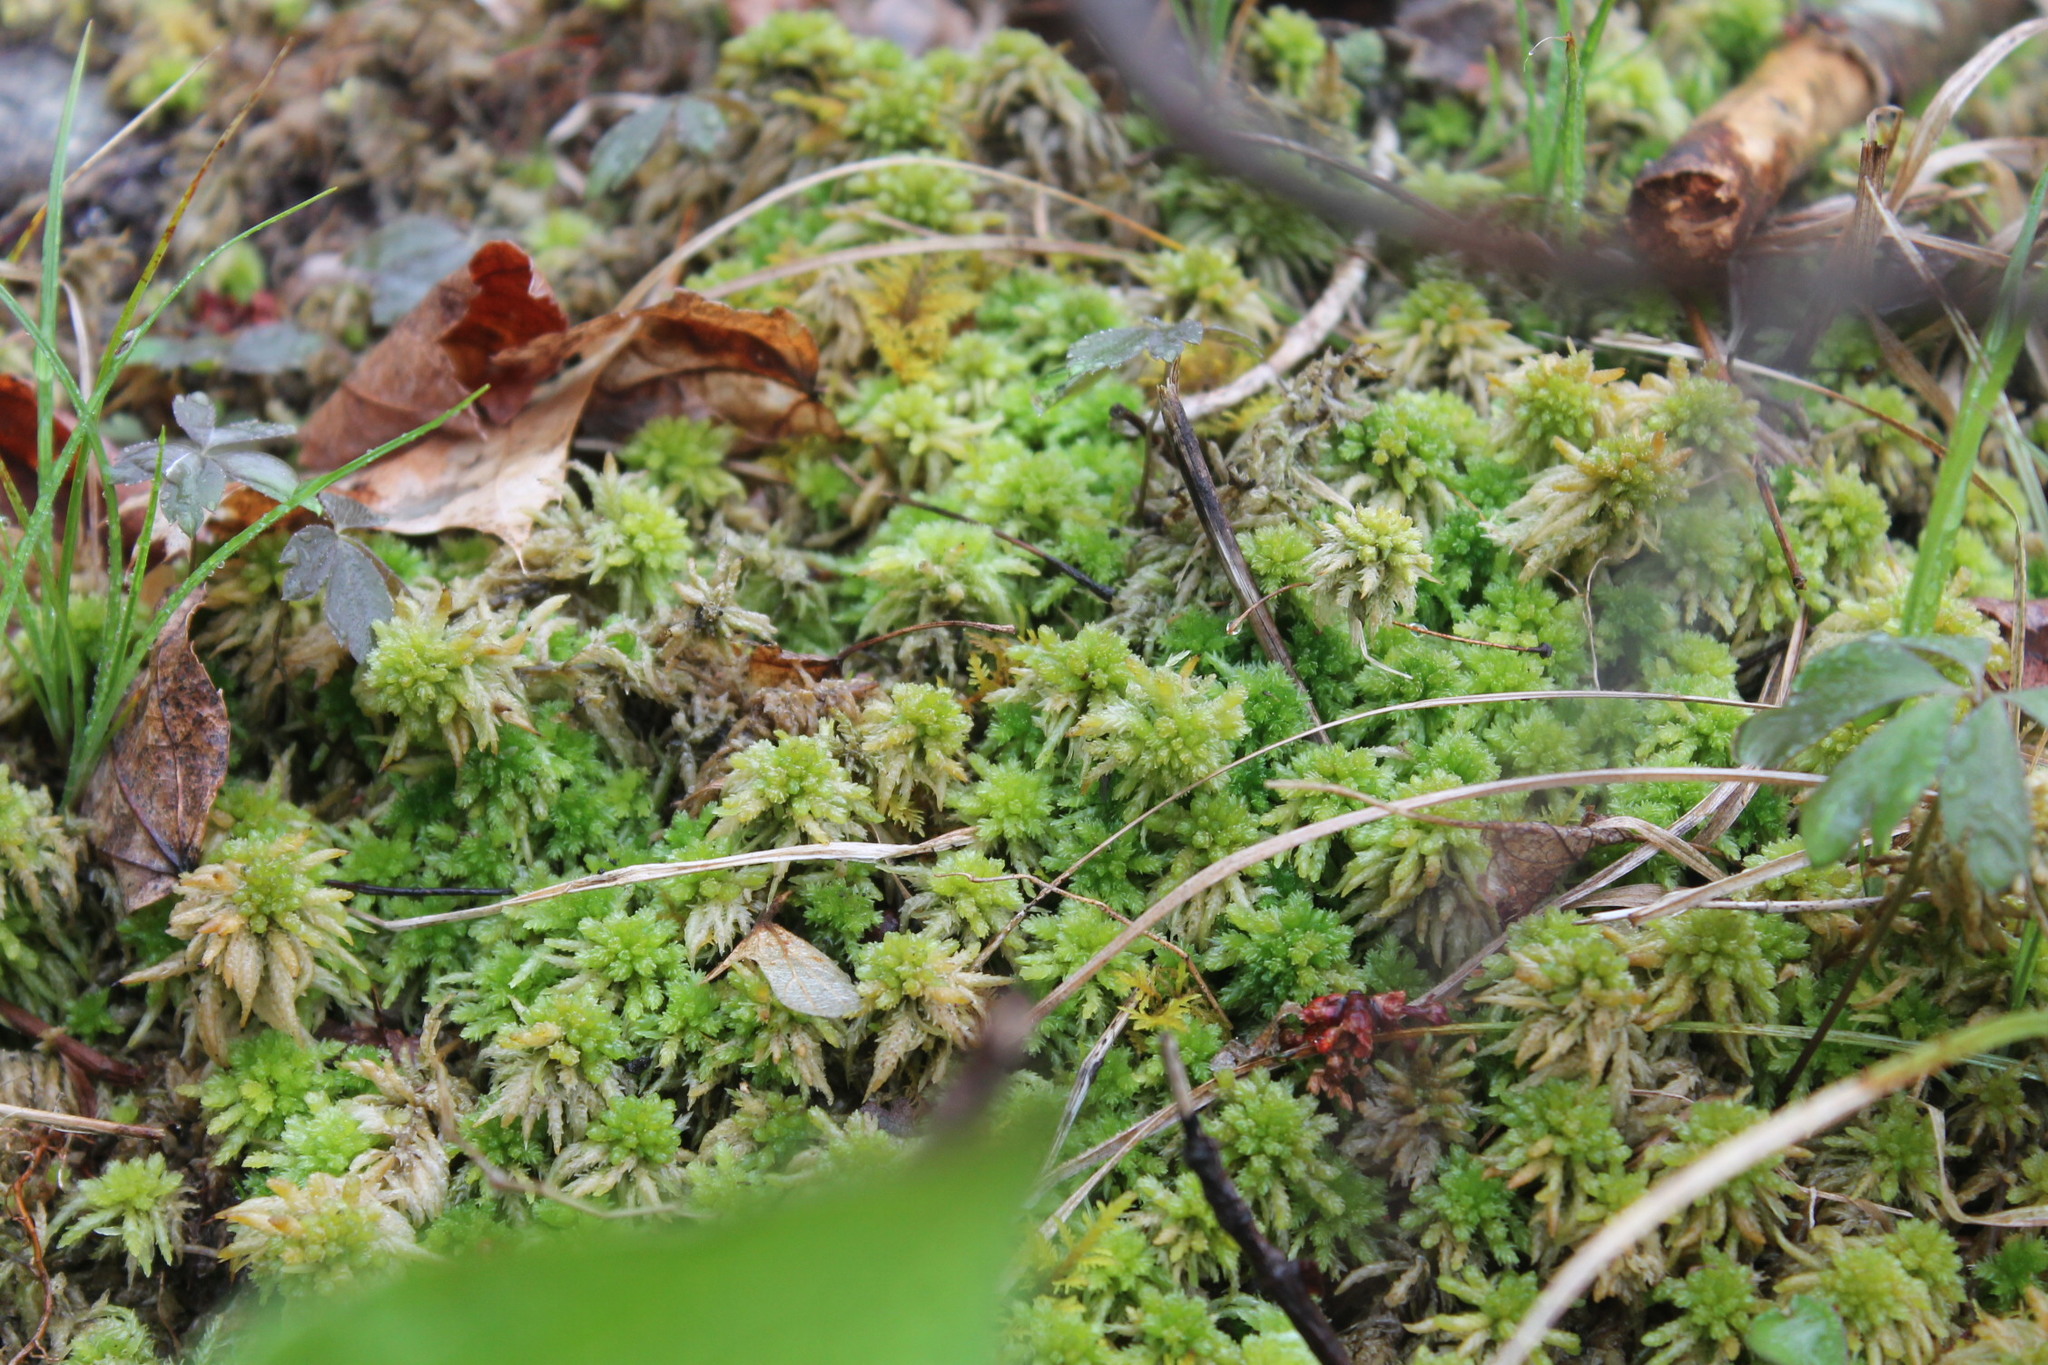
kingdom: Plantae
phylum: Bryophyta
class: Sphagnopsida
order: Sphagnales
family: Sphagnaceae
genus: Sphagnum
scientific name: Sphagnum palustre
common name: Blunt-leaved bog-moss
